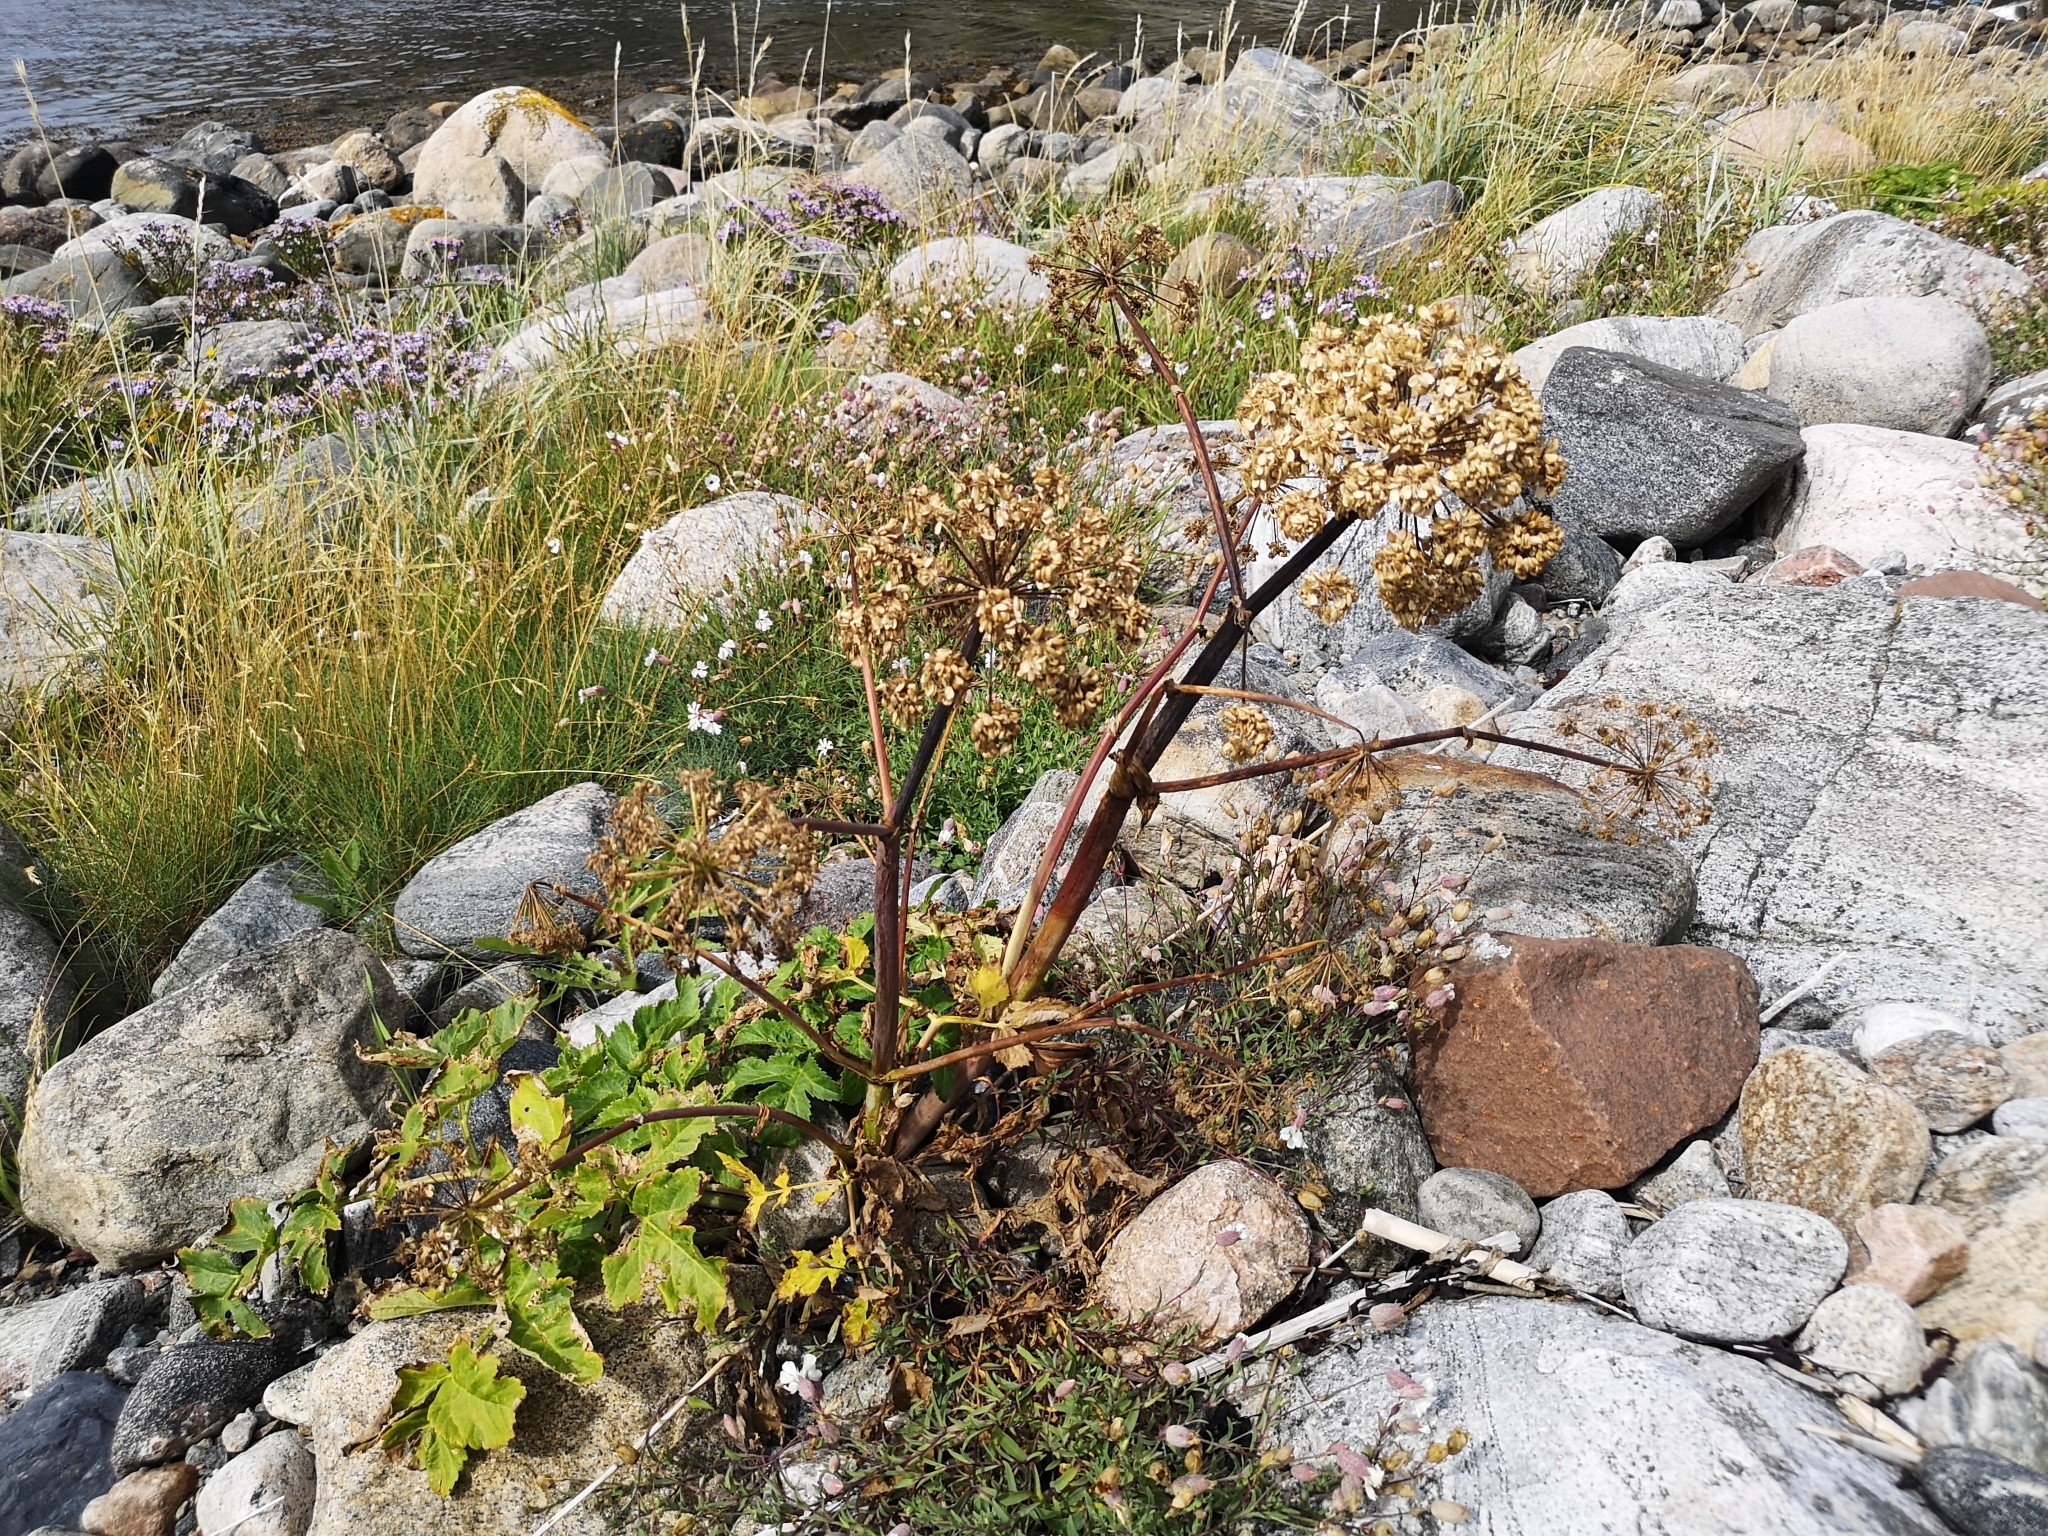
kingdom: Plantae
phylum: Tracheophyta
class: Magnoliopsida
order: Apiales
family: Apiaceae
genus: Angelica
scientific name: Angelica archangelica
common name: Garden angelica
